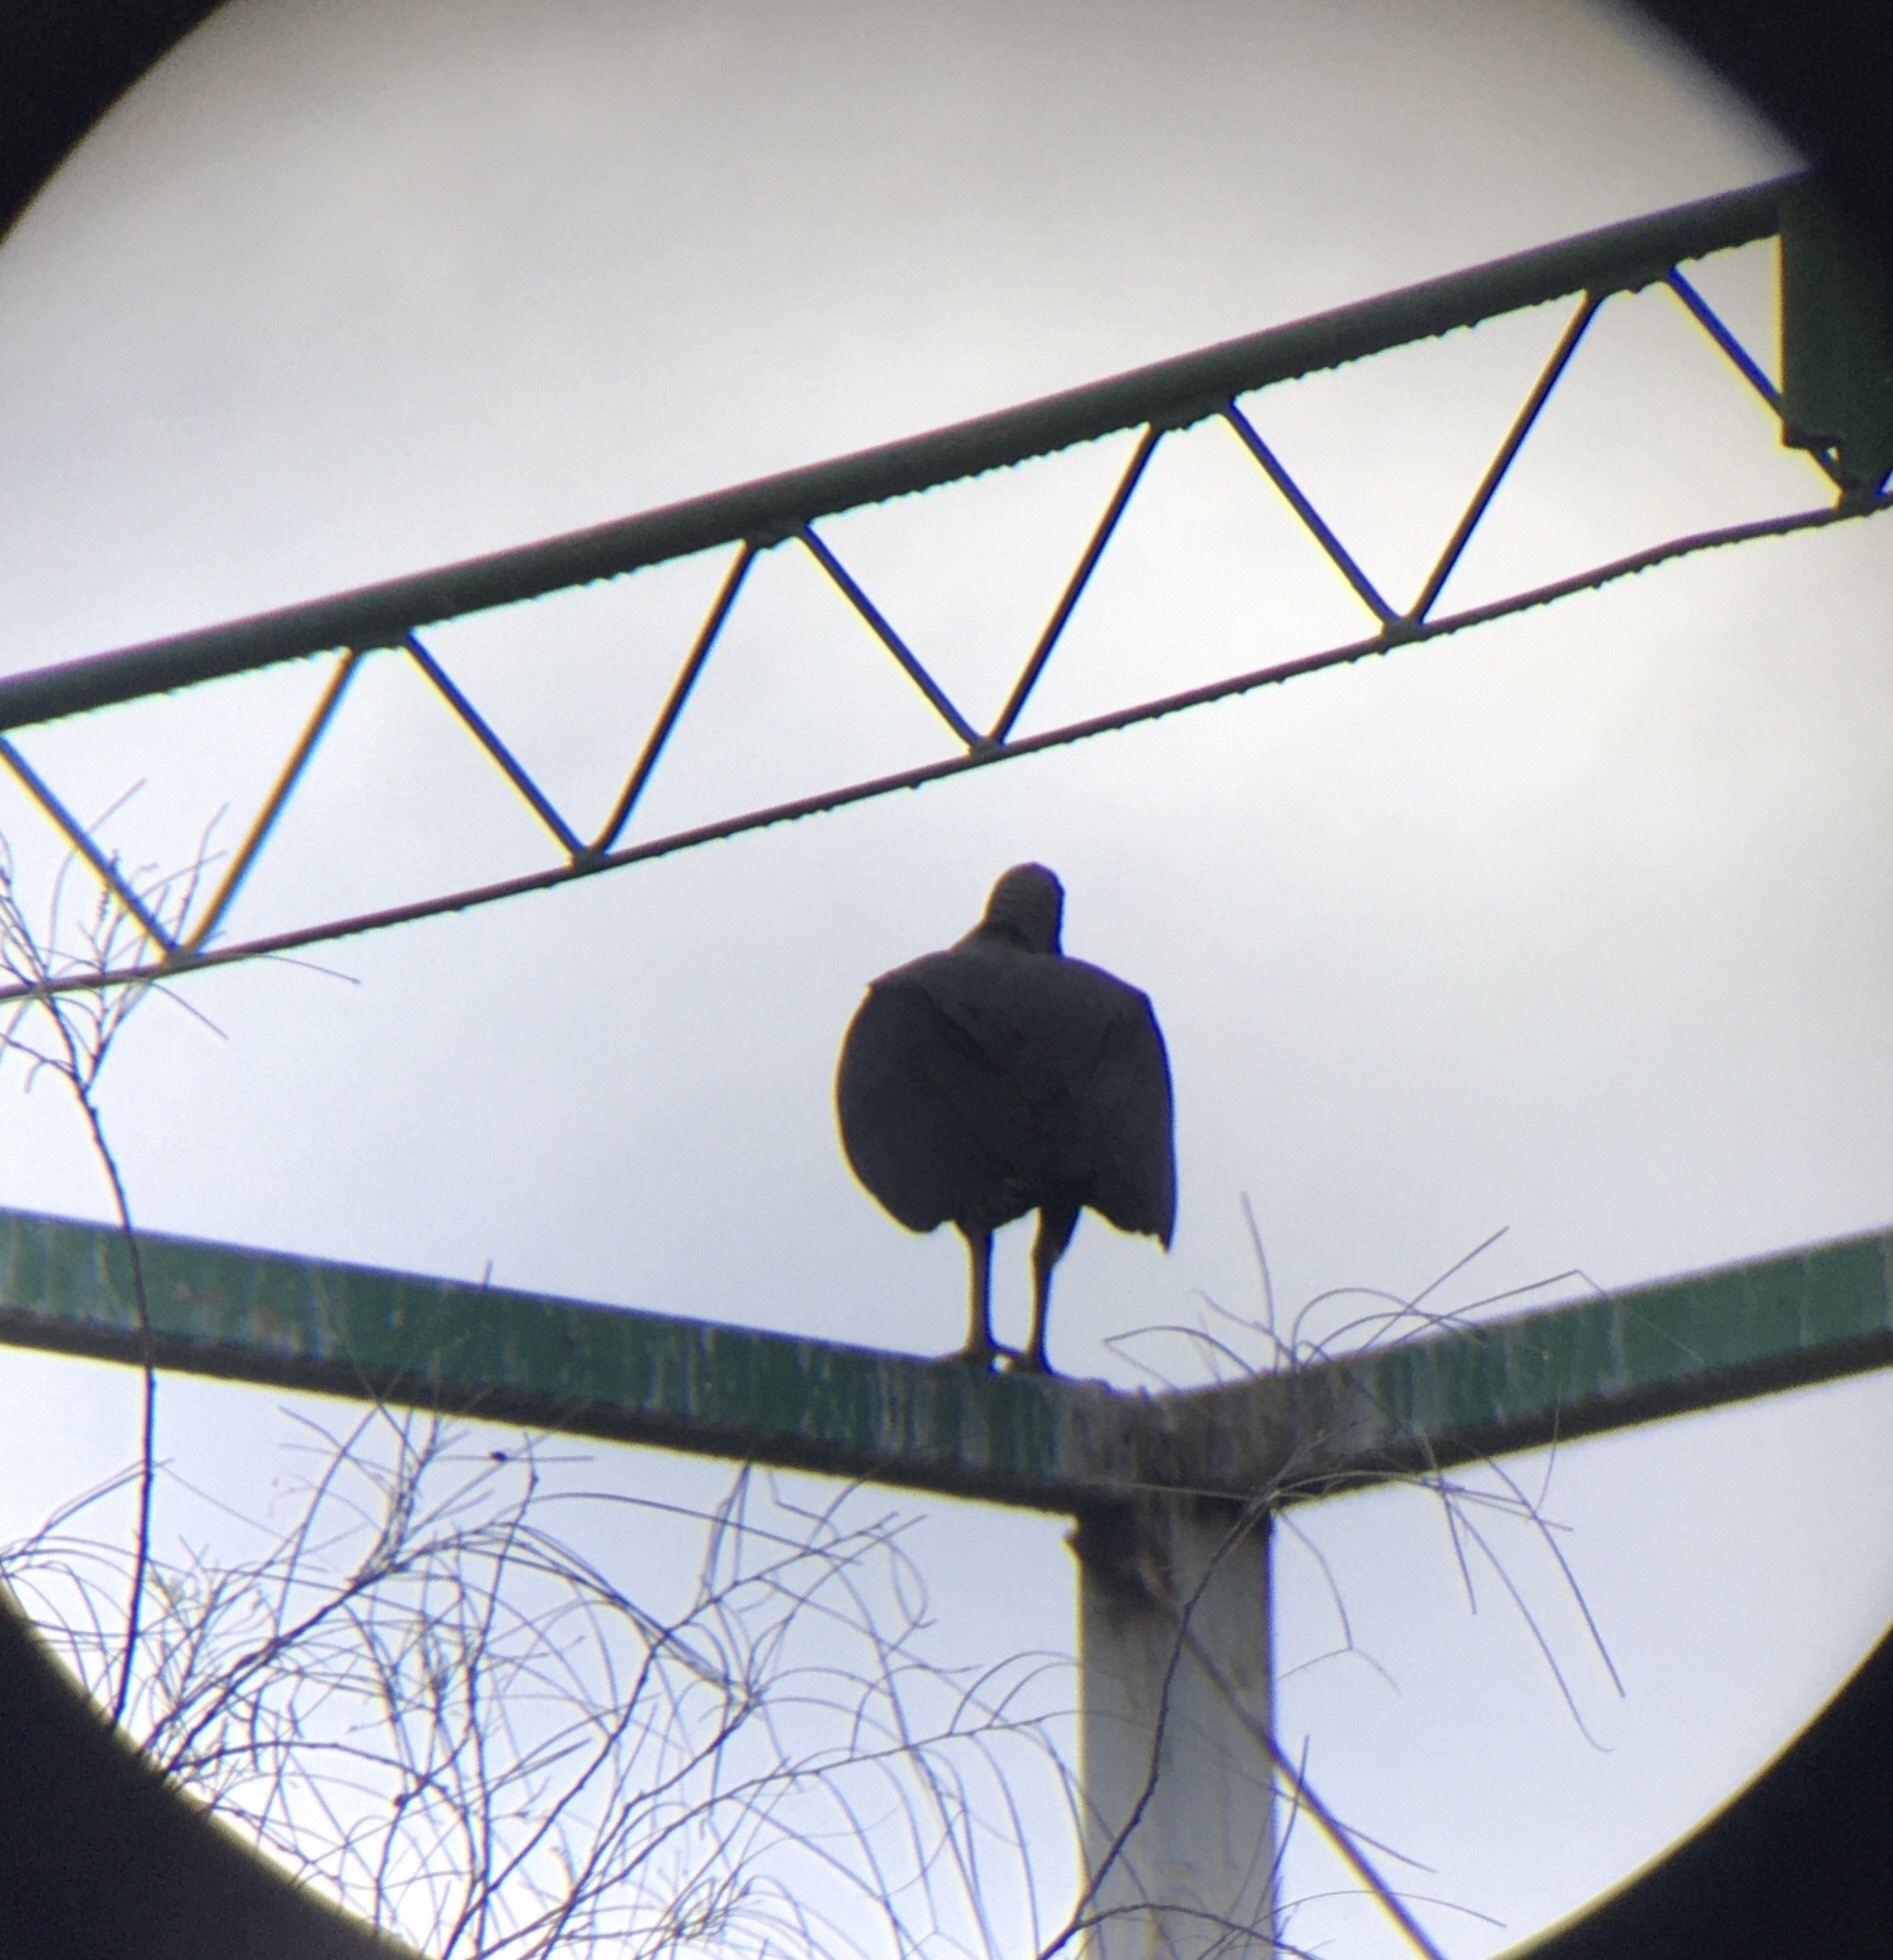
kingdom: Animalia
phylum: Chordata
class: Aves
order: Accipitriformes
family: Cathartidae
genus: Coragyps
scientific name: Coragyps atratus
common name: Black vulture
